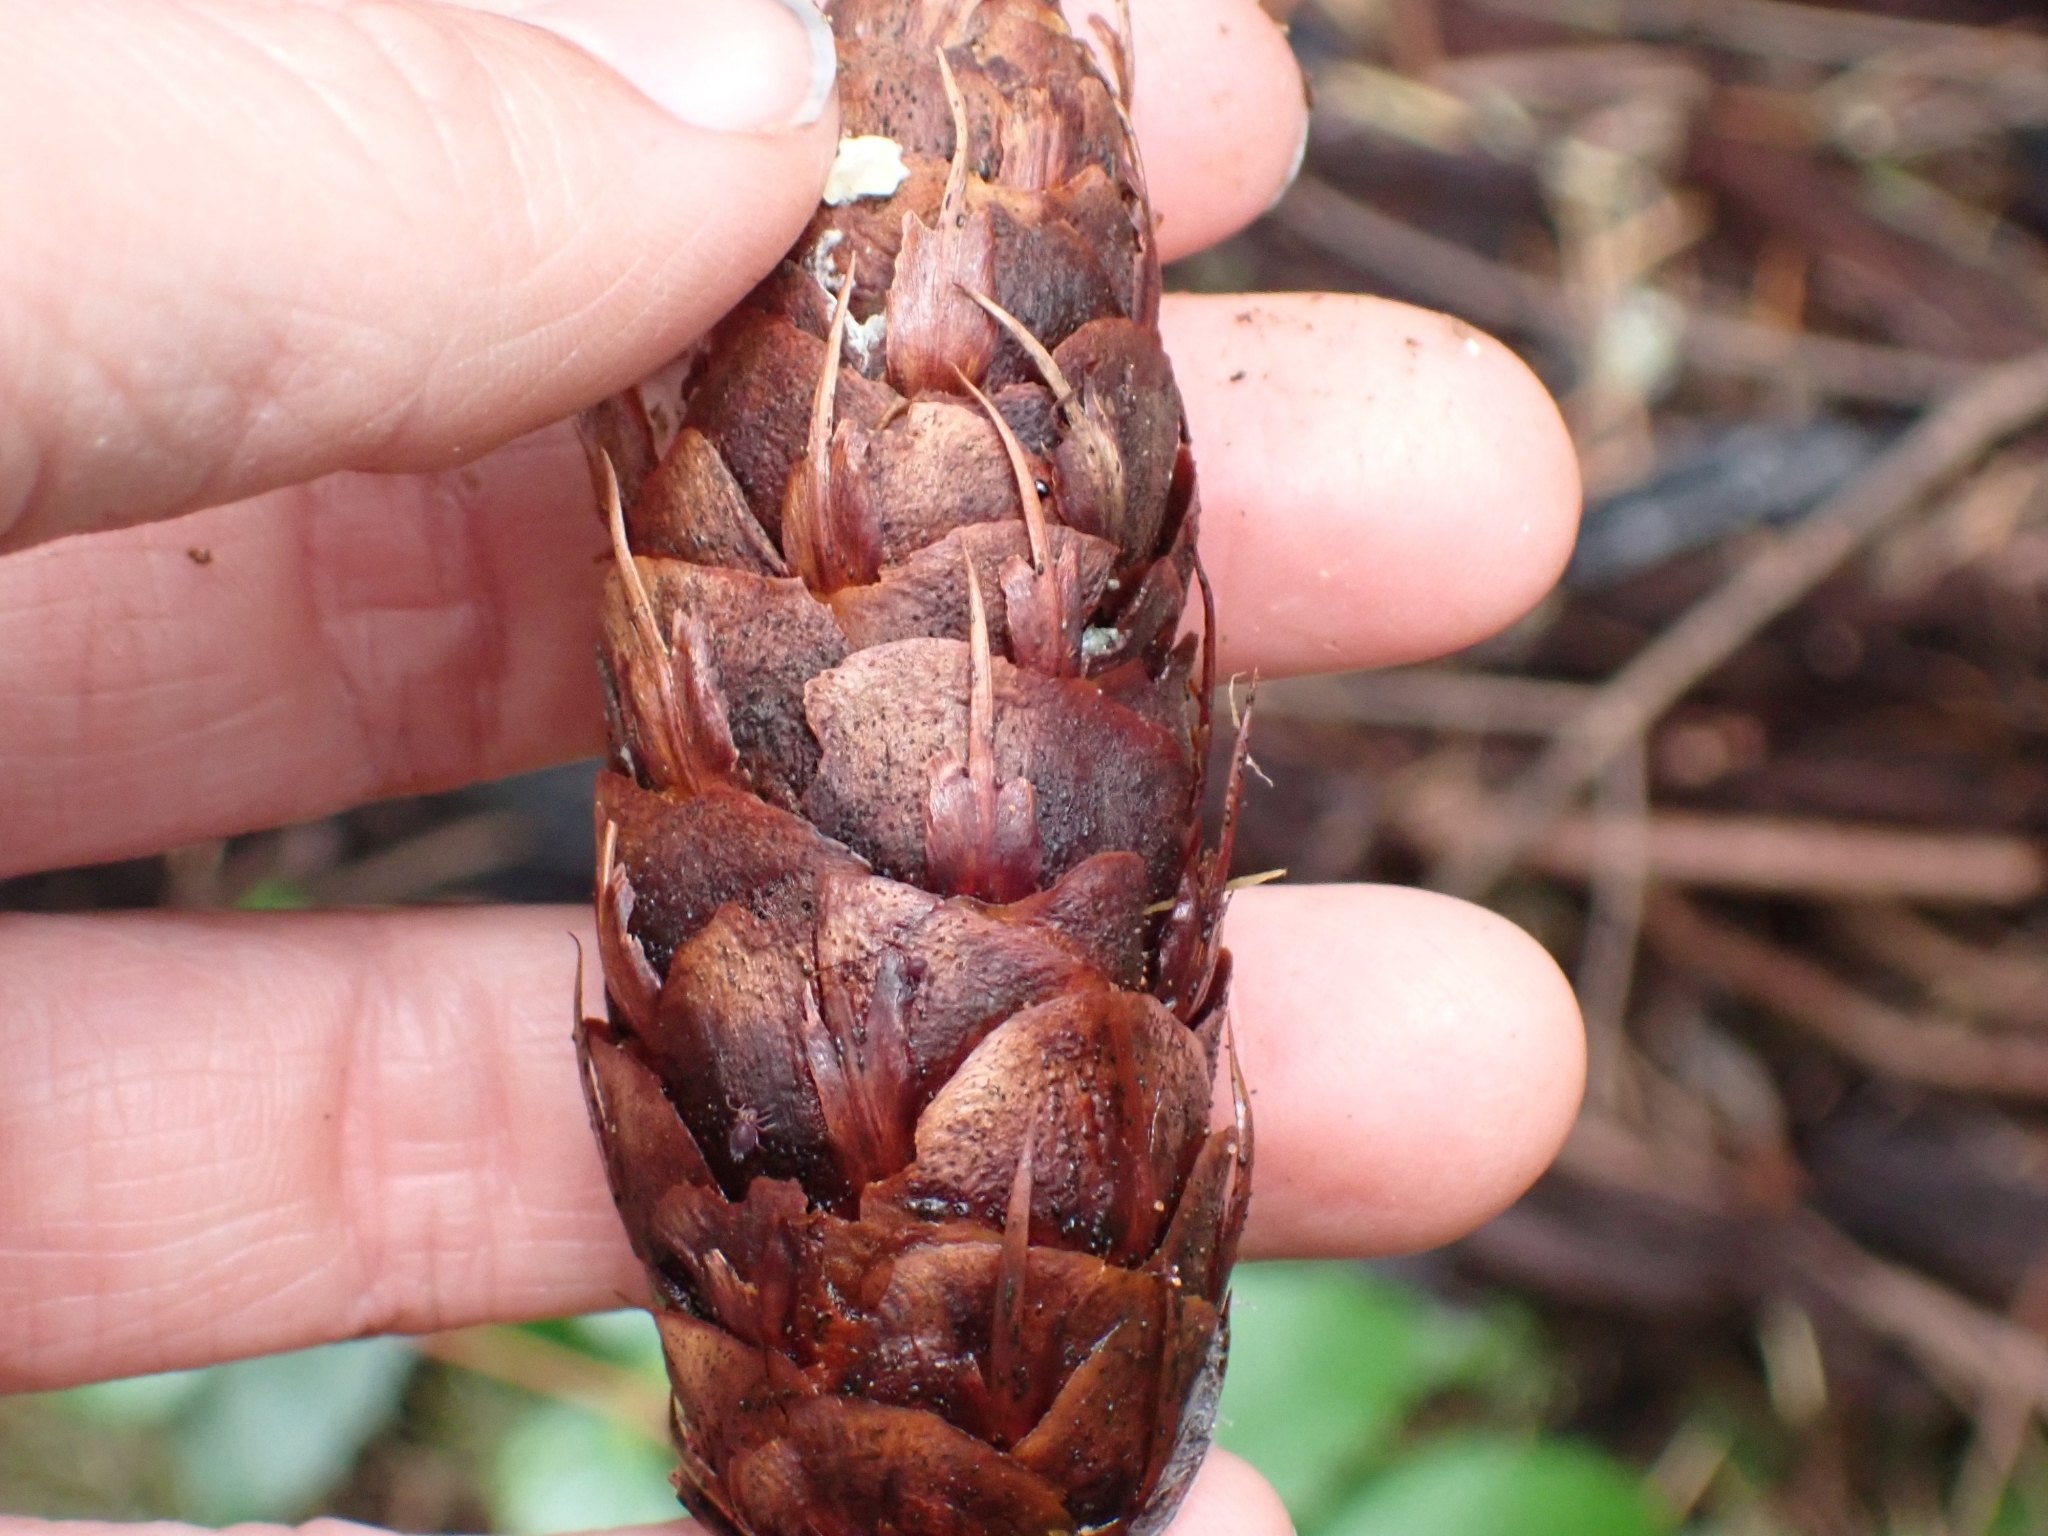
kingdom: Plantae
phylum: Tracheophyta
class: Pinopsida
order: Pinales
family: Pinaceae
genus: Pseudotsuga
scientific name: Pseudotsuga menziesii
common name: Douglas fir
